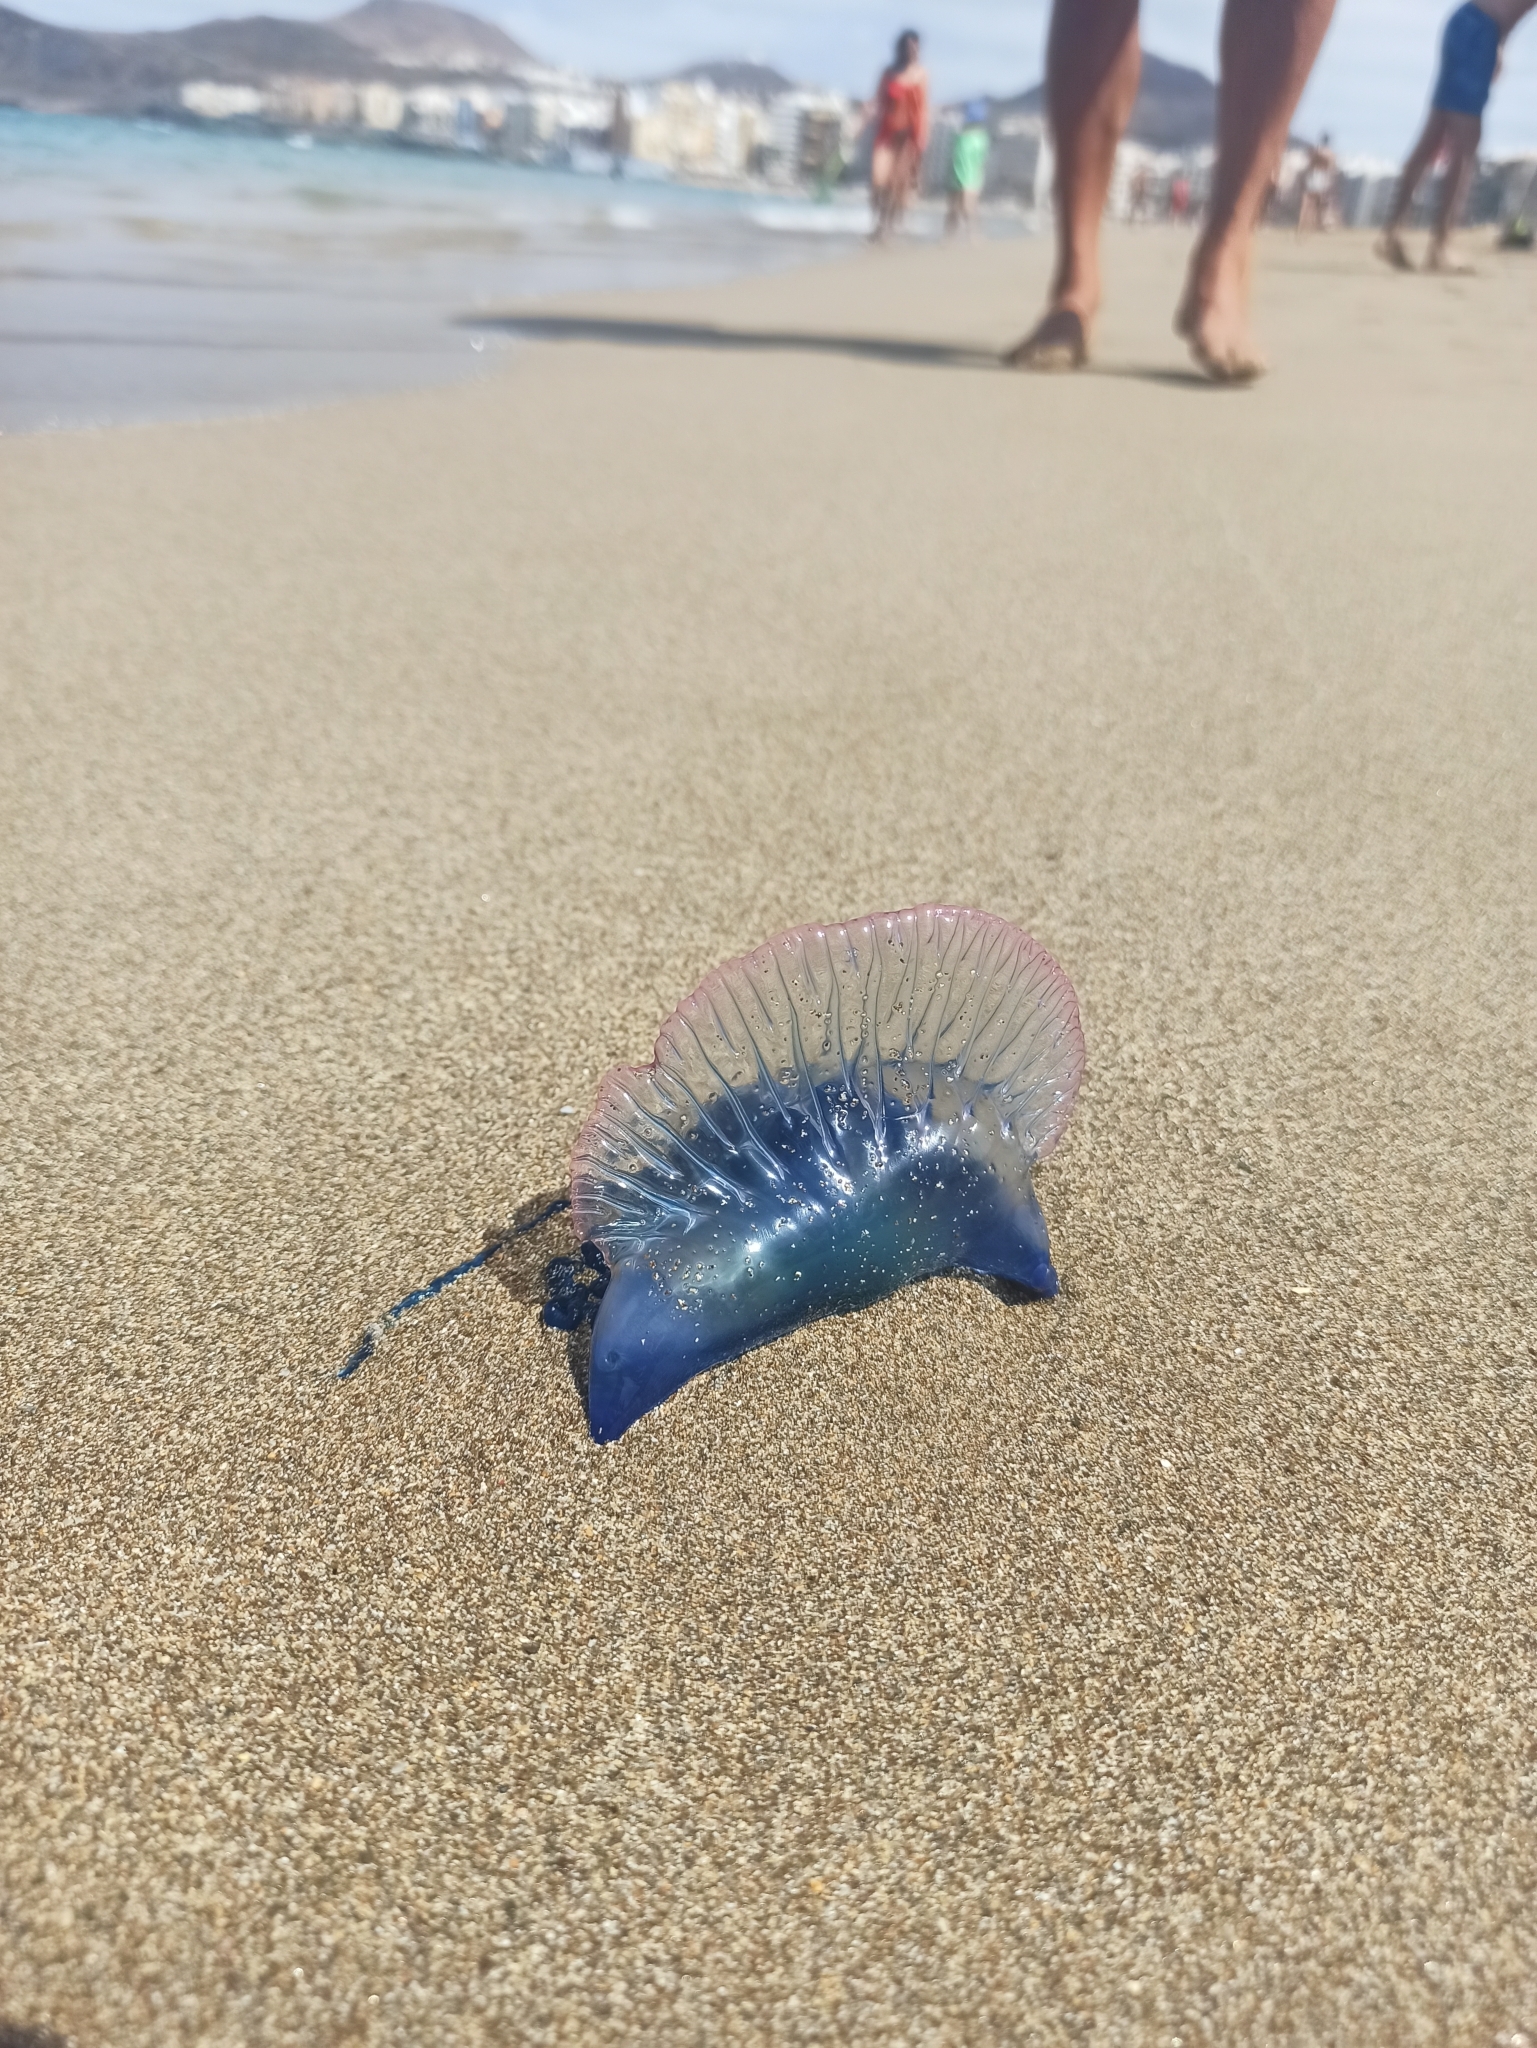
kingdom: Animalia
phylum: Cnidaria
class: Hydrozoa
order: Siphonophorae
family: Physaliidae
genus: Physalia
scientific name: Physalia physalis
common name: Portuguese man-of-war
